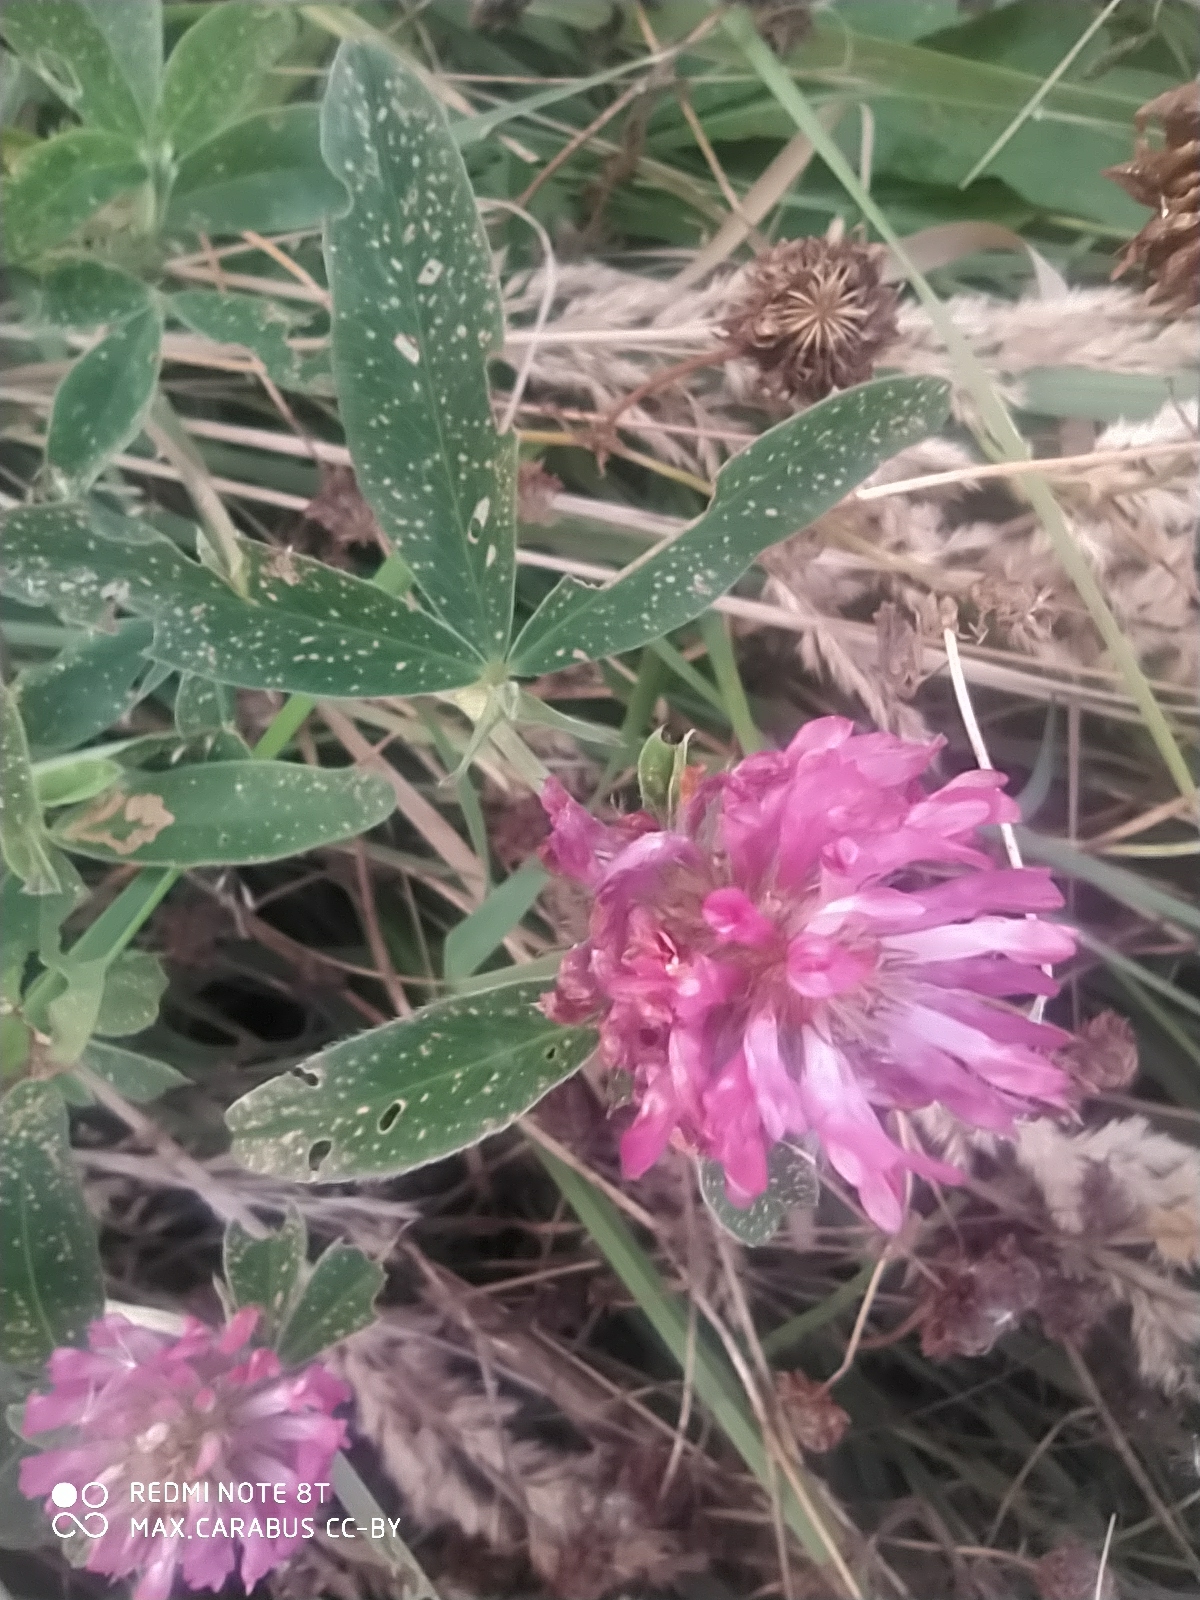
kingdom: Plantae
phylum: Tracheophyta
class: Magnoliopsida
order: Fabales
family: Fabaceae
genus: Trifolium
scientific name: Trifolium medium
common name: Zigzag clover
